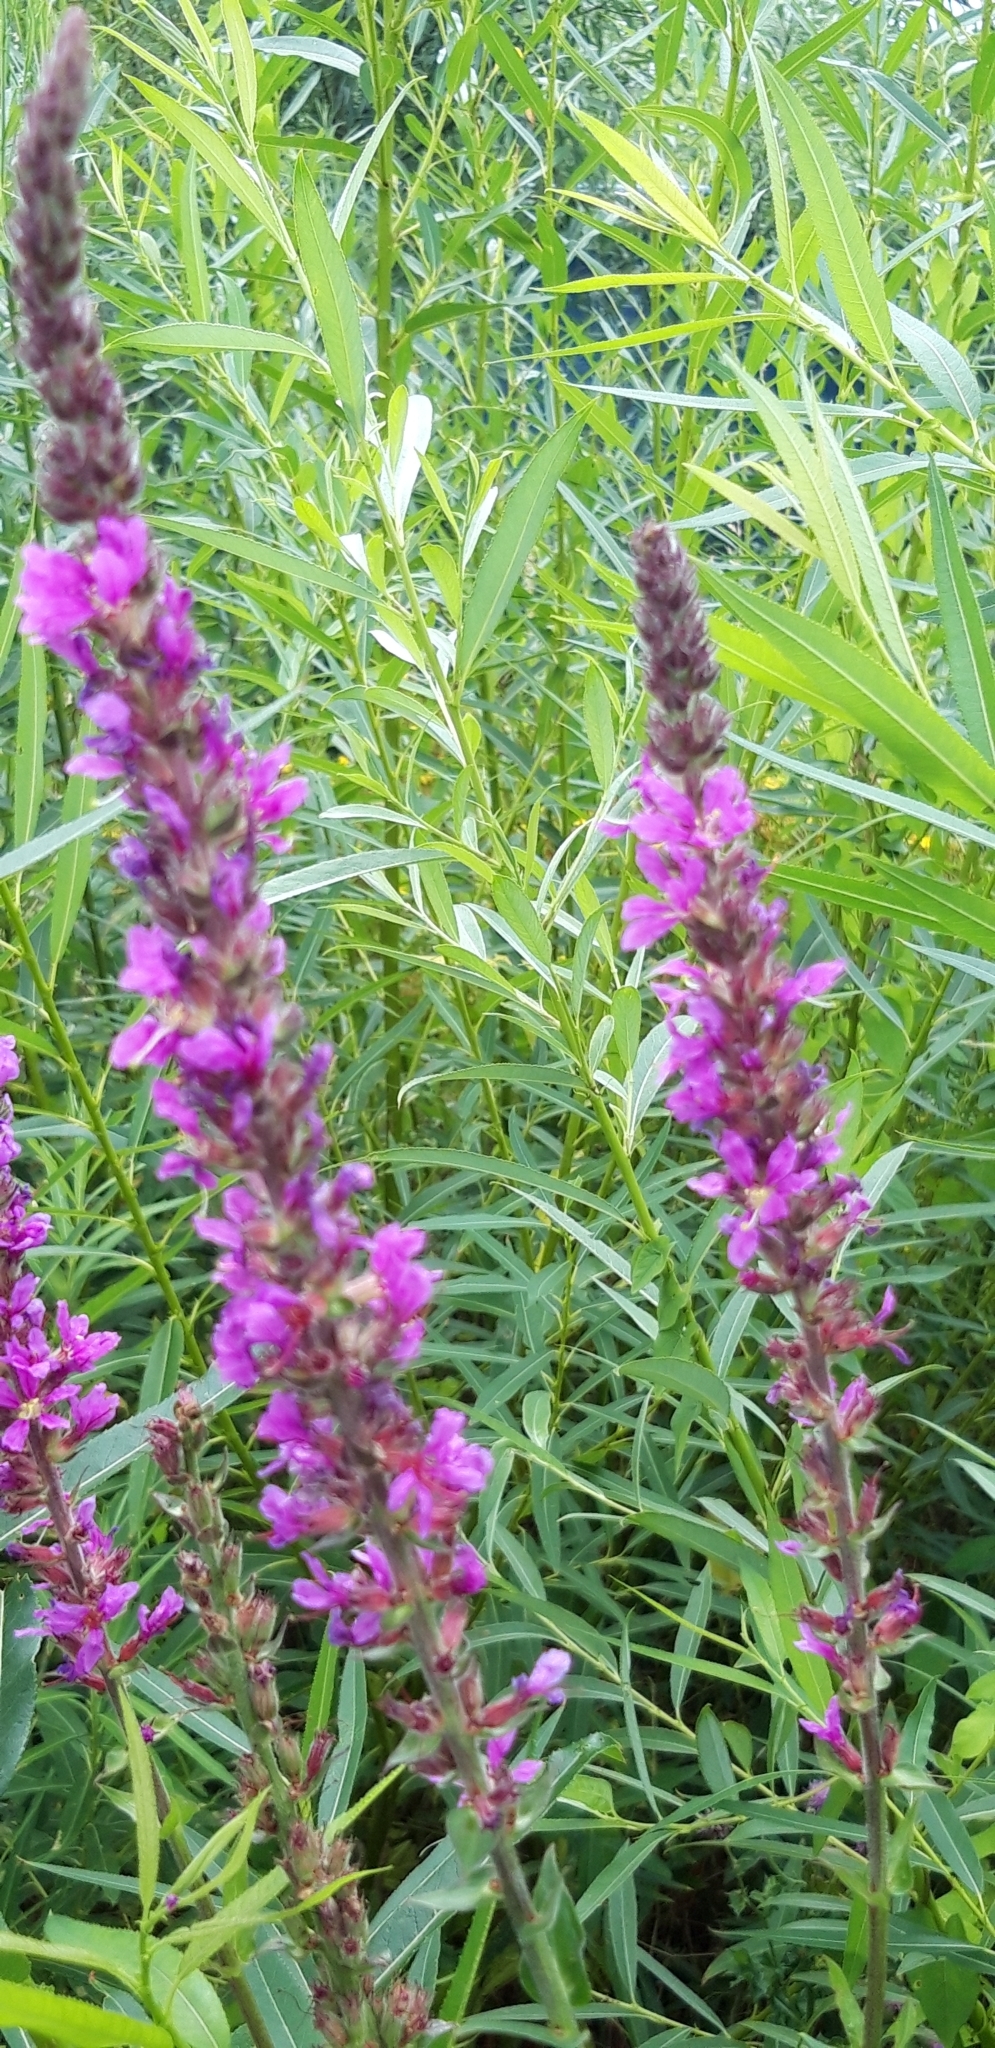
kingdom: Plantae
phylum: Tracheophyta
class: Magnoliopsida
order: Myrtales
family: Lythraceae
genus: Lythrum
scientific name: Lythrum salicaria
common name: Purple loosestrife
